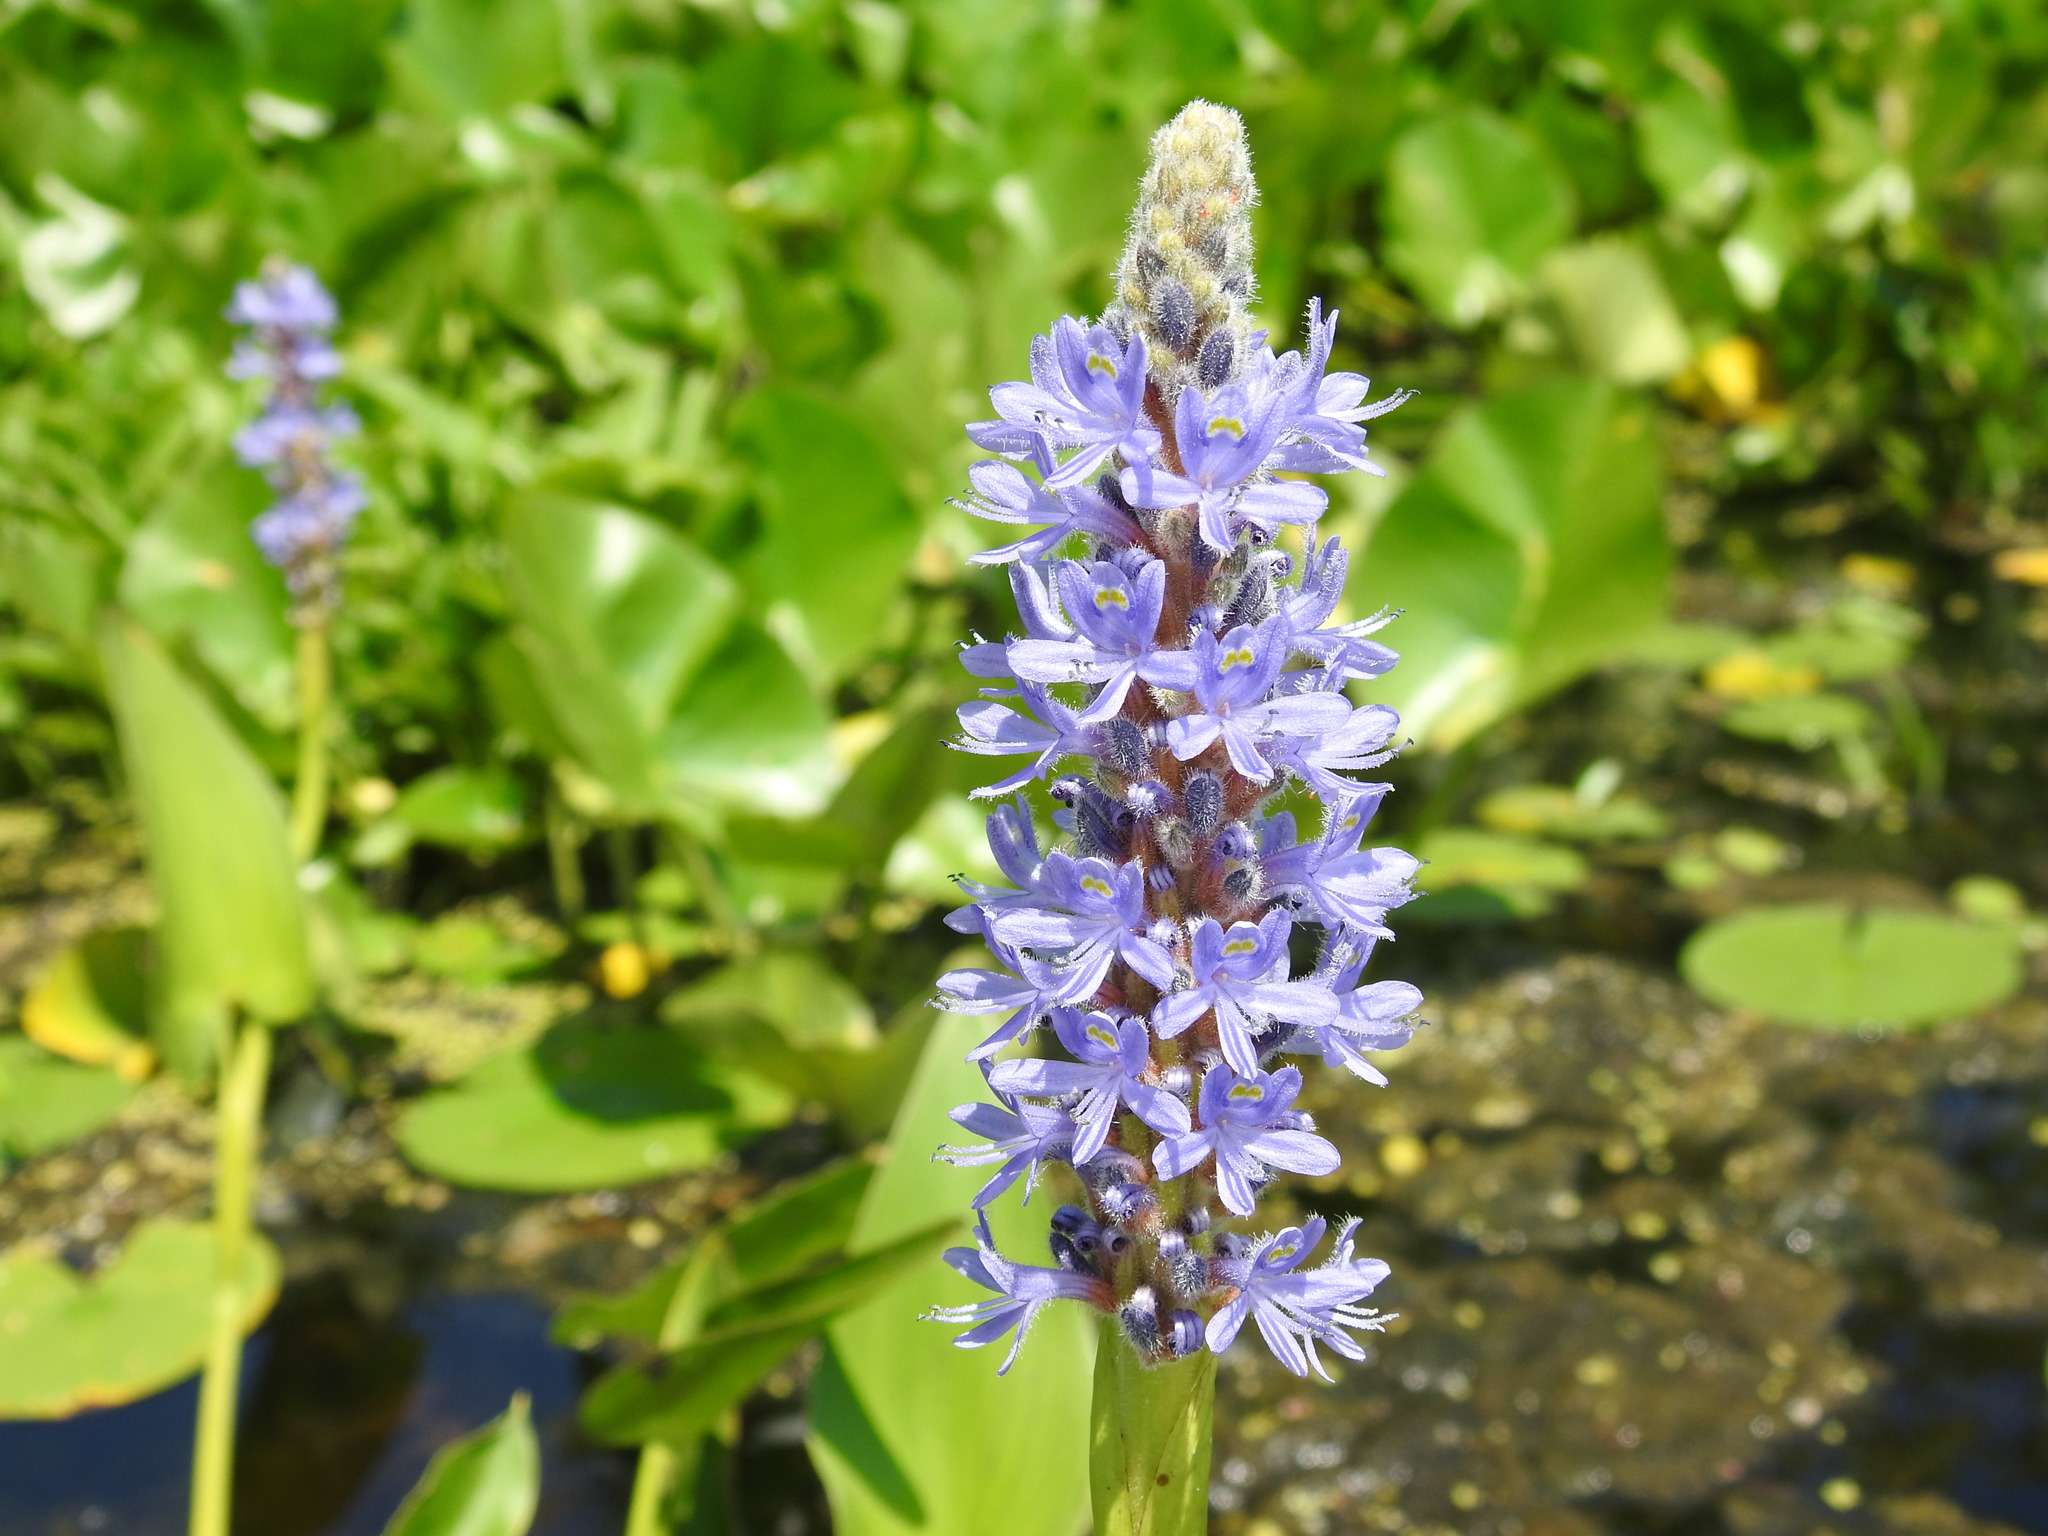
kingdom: Plantae
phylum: Tracheophyta
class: Liliopsida
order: Commelinales
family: Pontederiaceae
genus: Pontederia
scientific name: Pontederia cordata
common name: Pickerelweed
